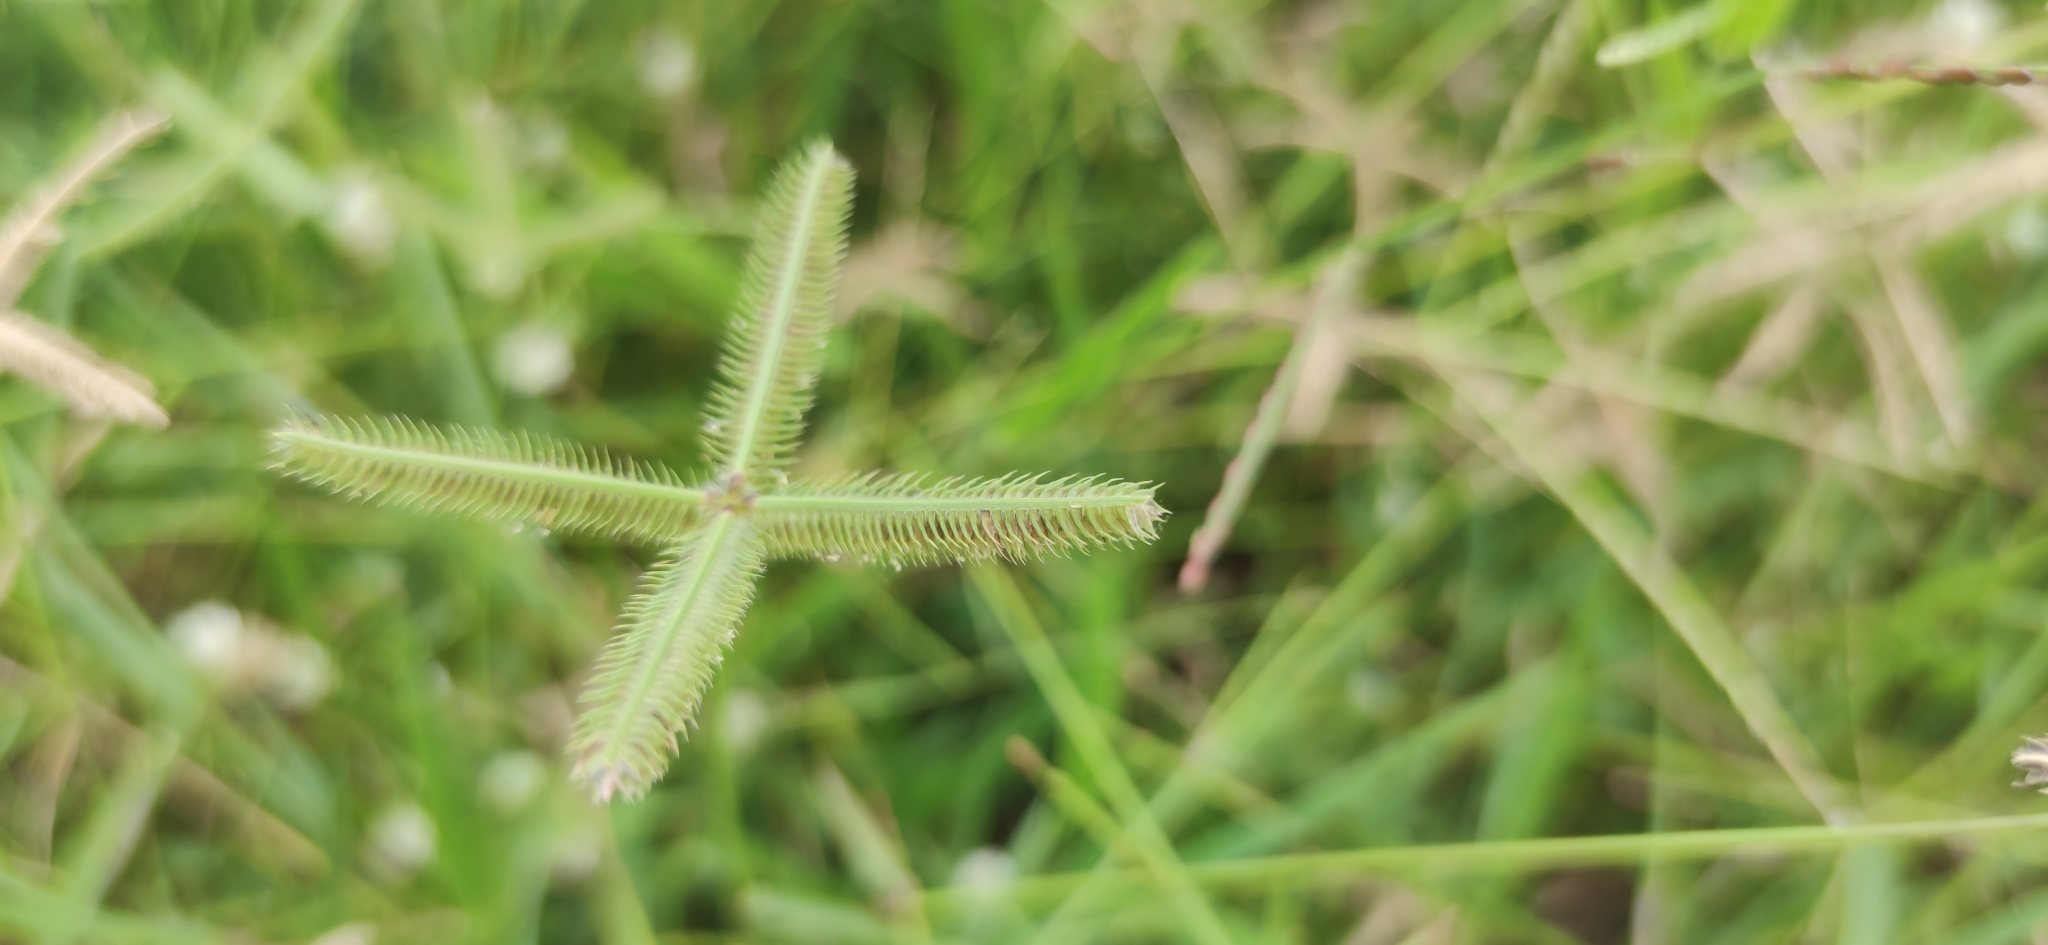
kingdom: Plantae
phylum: Tracheophyta
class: Liliopsida
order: Poales
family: Poaceae
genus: Dactyloctenium
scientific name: Dactyloctenium aegyptium
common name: Egyptian grass
